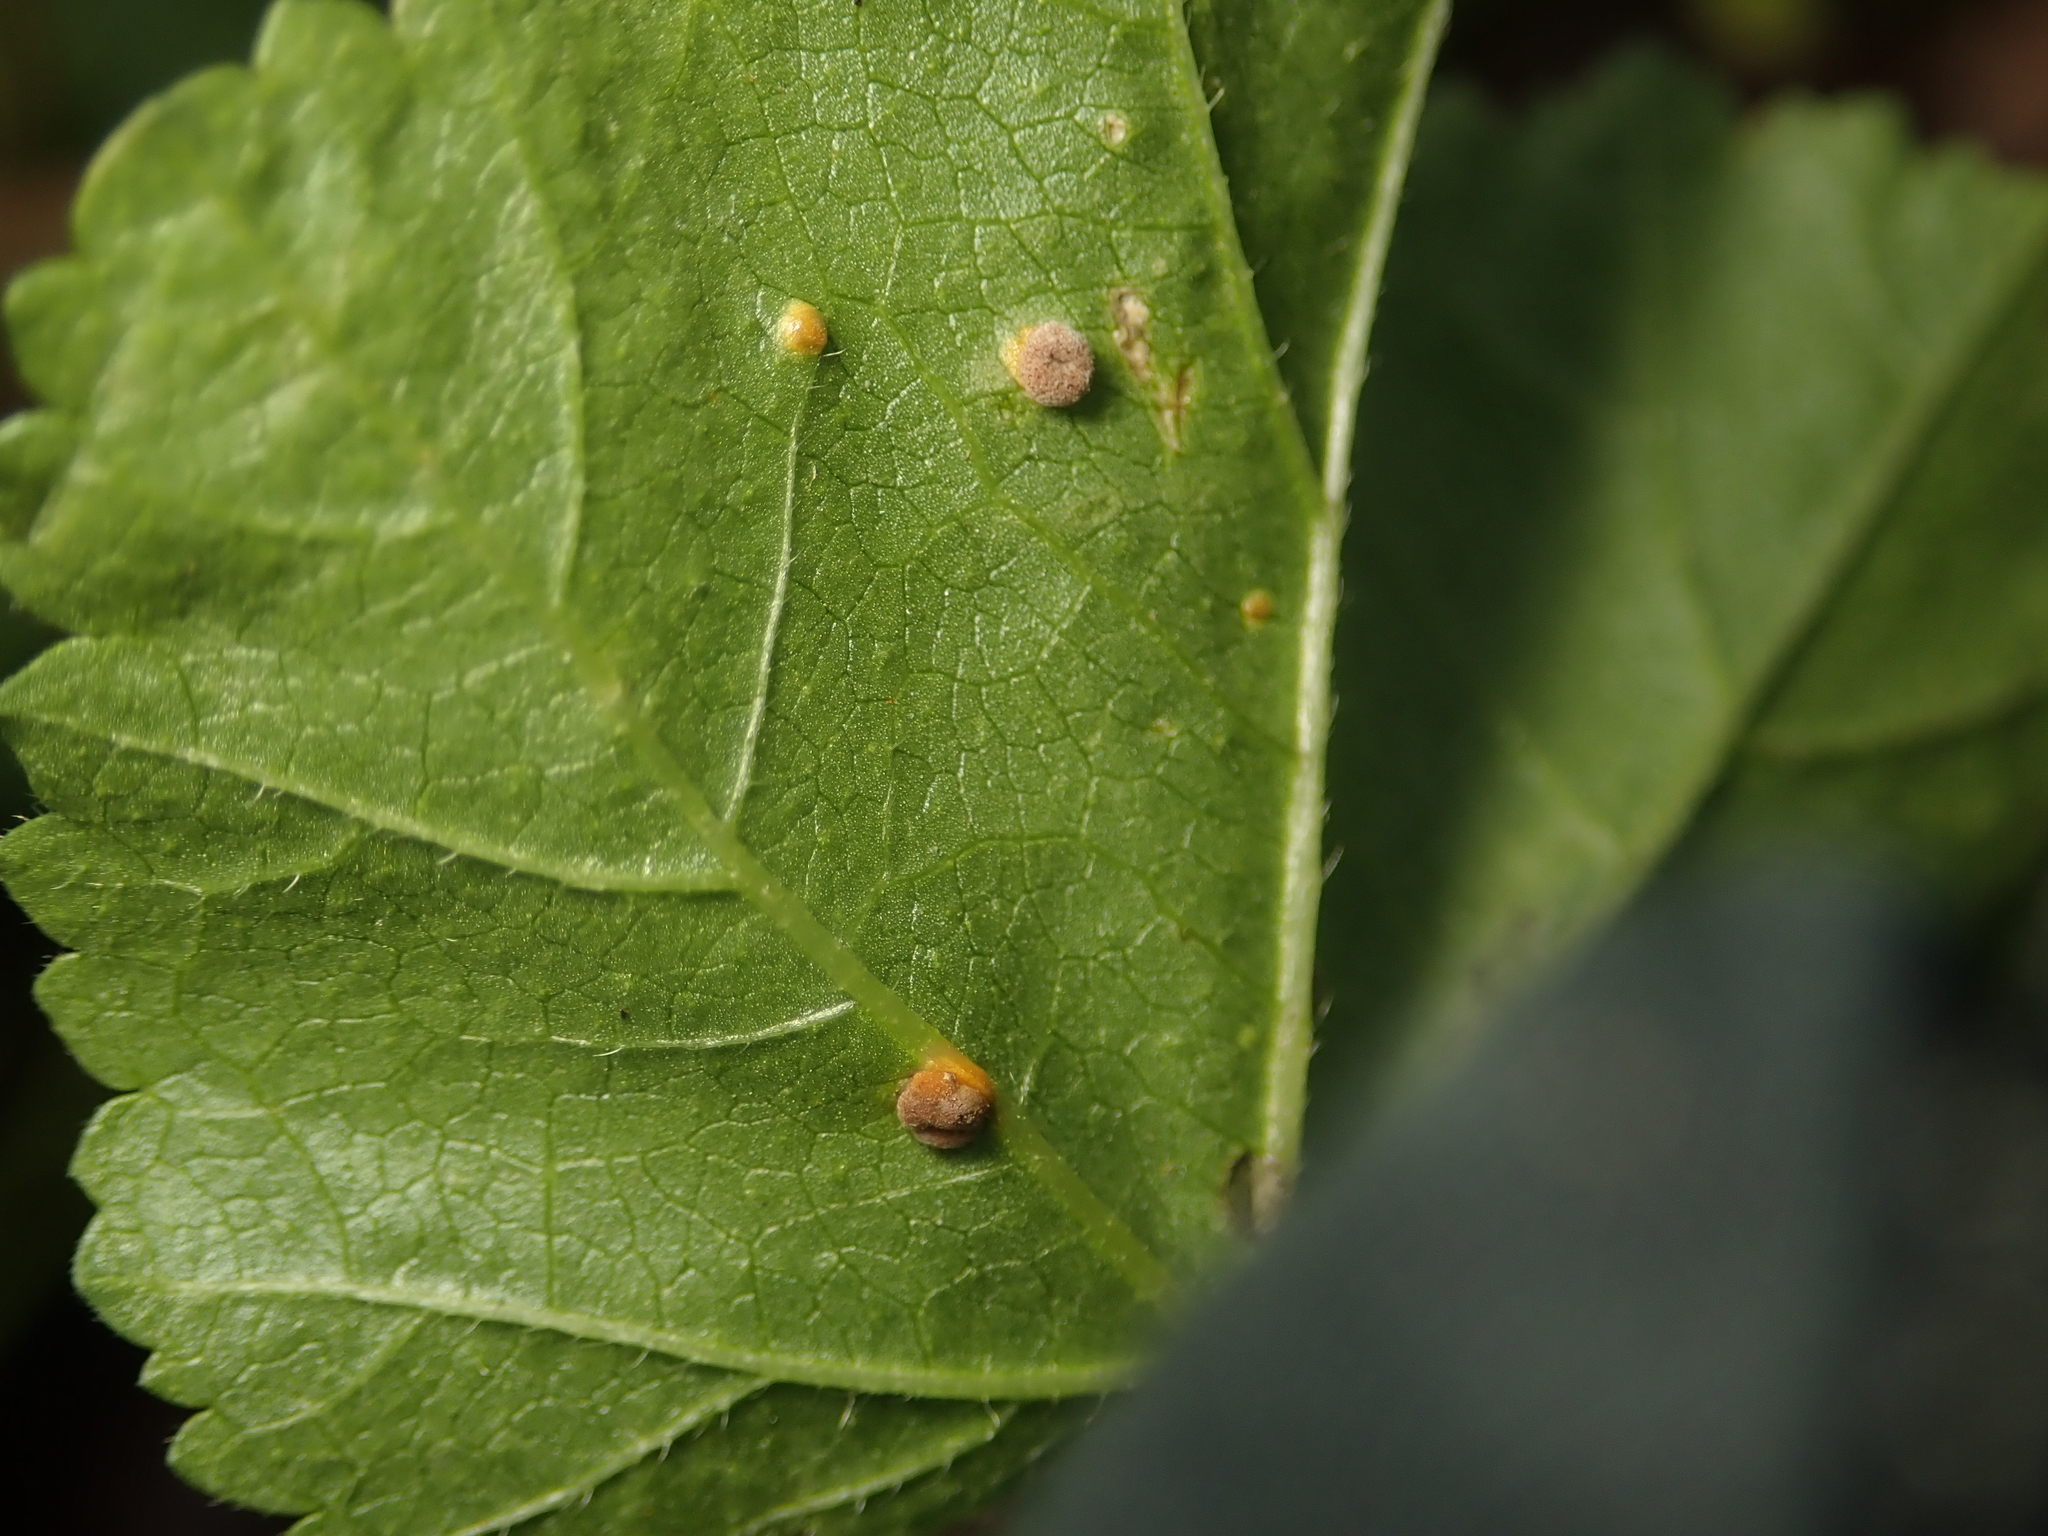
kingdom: Fungi
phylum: Basidiomycota
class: Pucciniomycetes
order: Pucciniales
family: Pucciniaceae
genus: Puccinia
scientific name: Puccinia malvacearum
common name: Hollyhock rust
